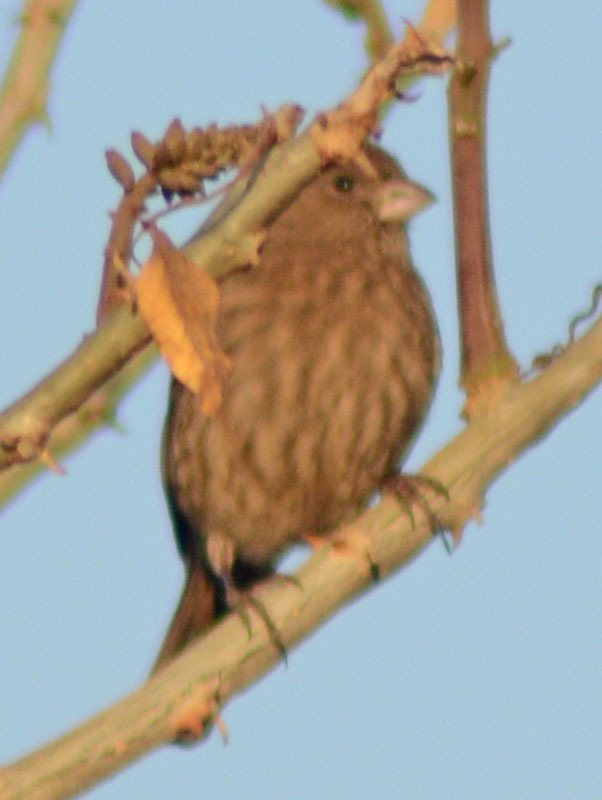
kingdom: Animalia
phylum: Chordata
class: Aves
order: Passeriformes
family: Fringillidae
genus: Haemorhous
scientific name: Haemorhous mexicanus
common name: House finch
